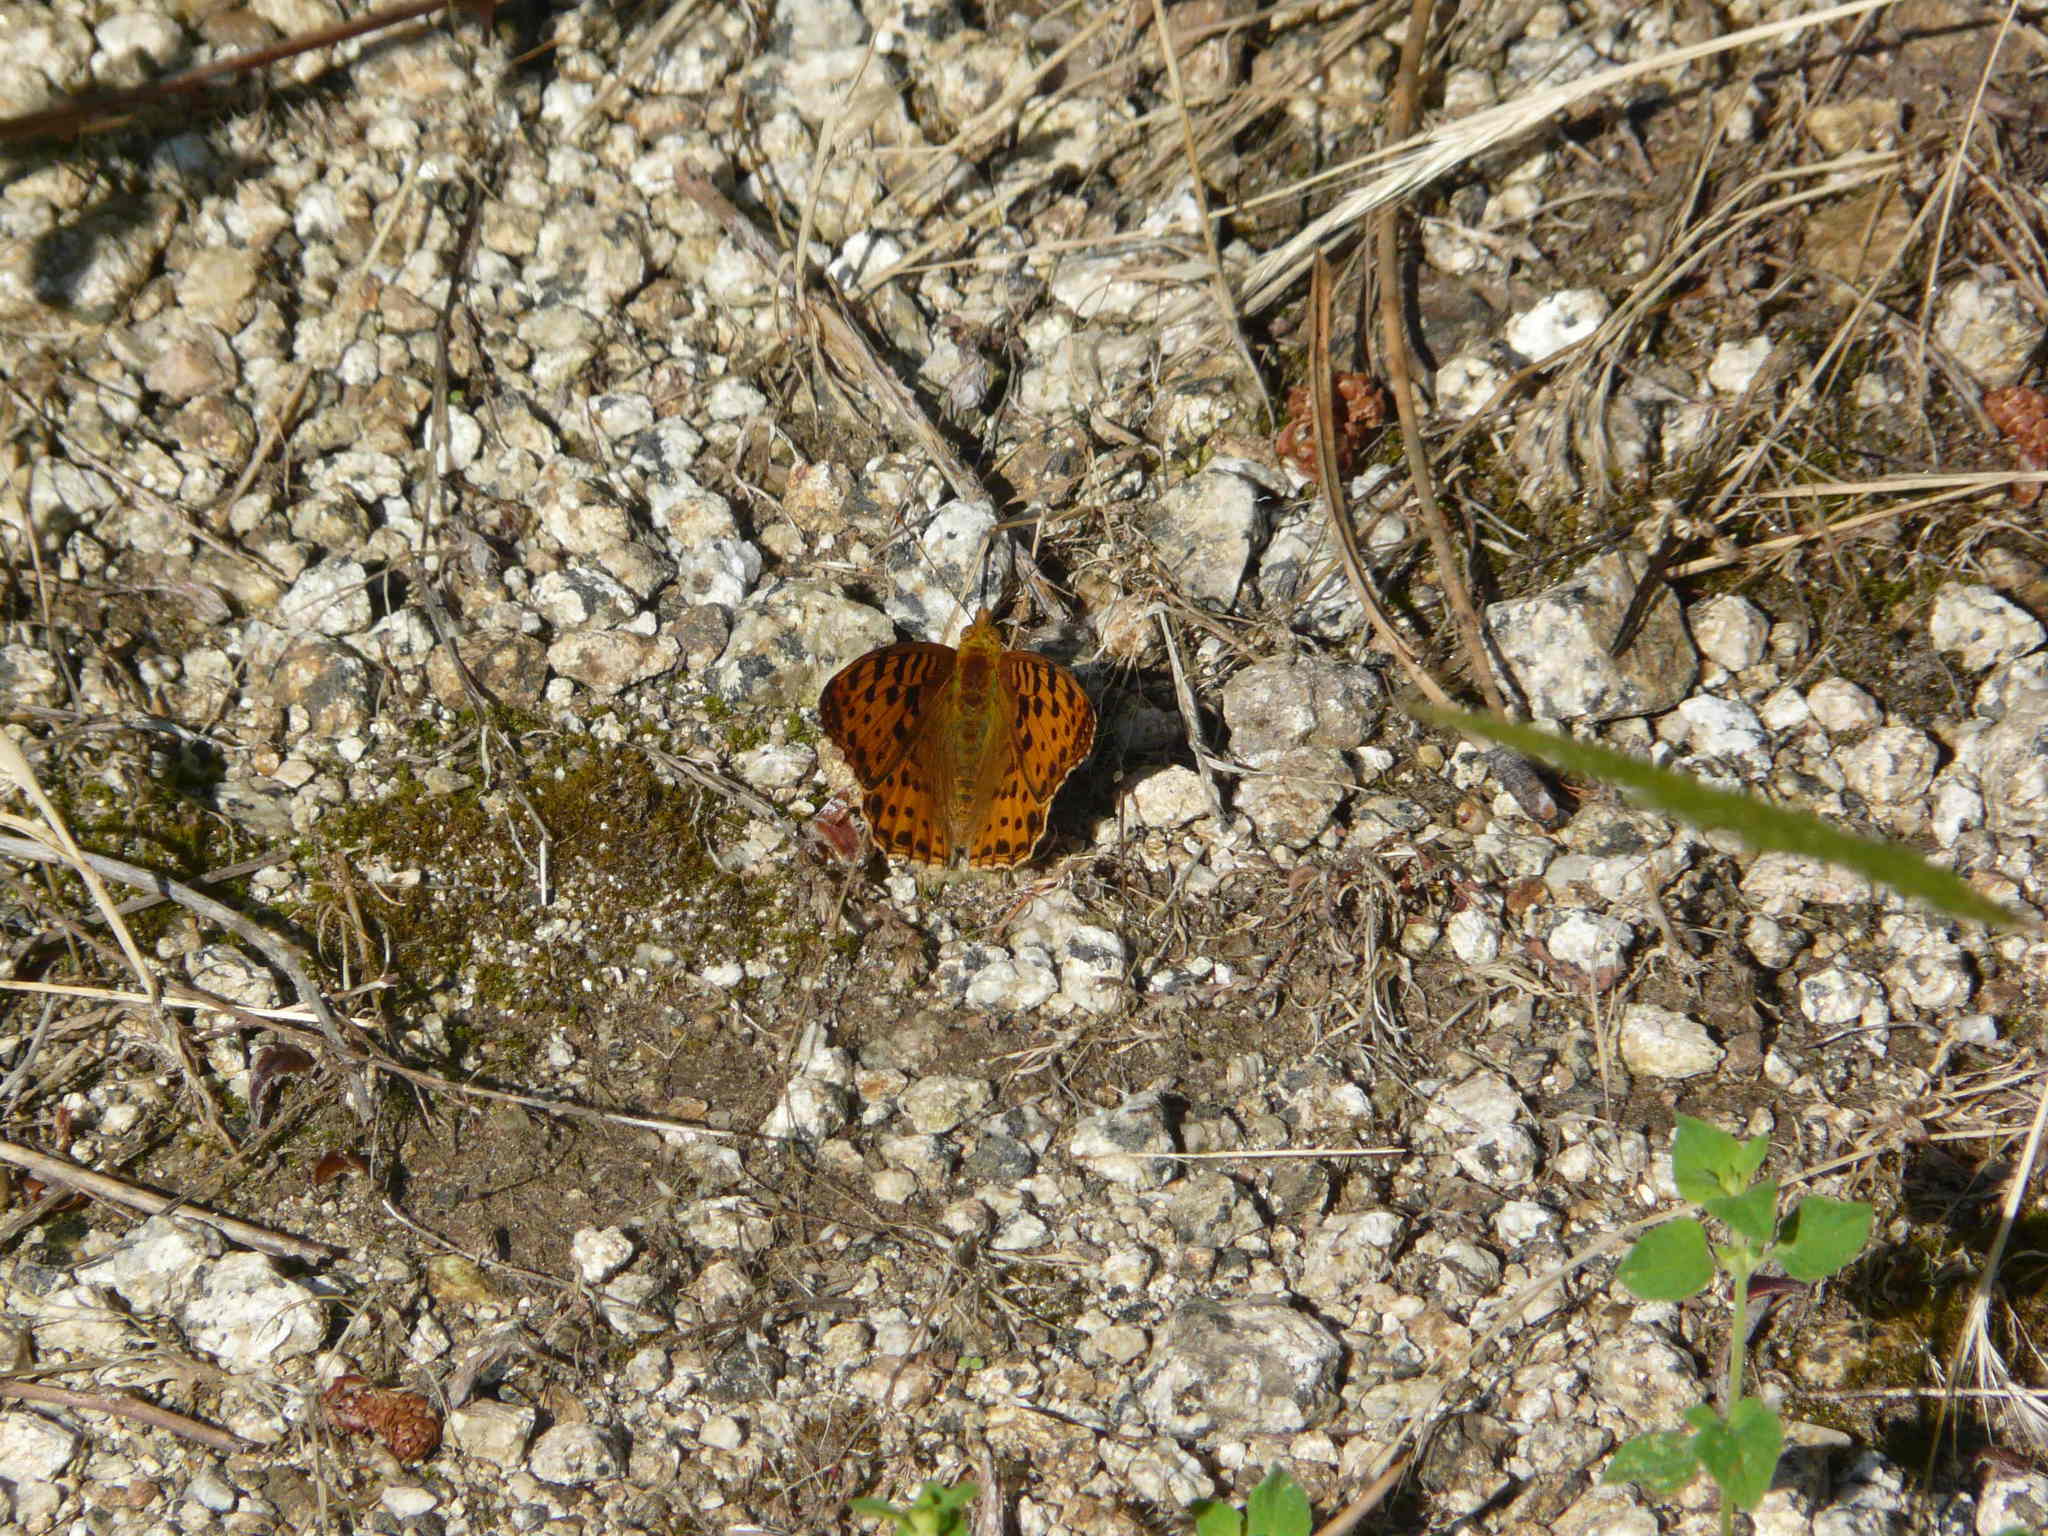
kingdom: Animalia
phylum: Arthropoda
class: Insecta
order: Lepidoptera
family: Nymphalidae
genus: Issoria
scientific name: Issoria lathonia
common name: Queen of spain fritillary
